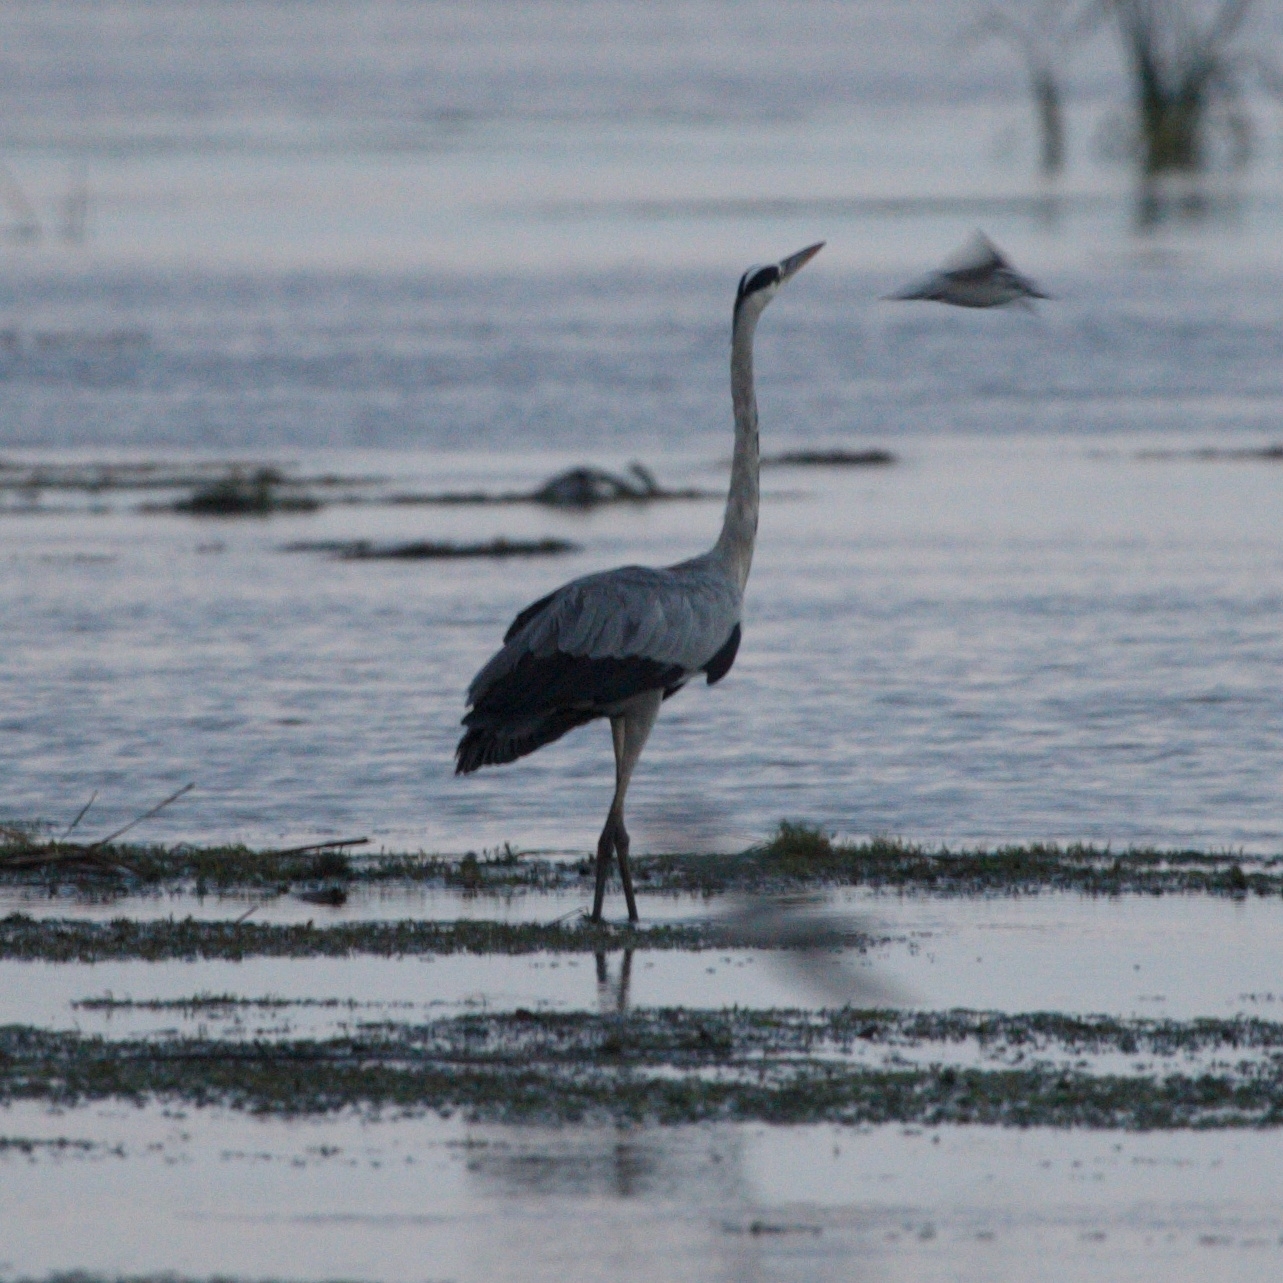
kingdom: Animalia
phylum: Chordata
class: Aves
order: Pelecaniformes
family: Ardeidae
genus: Ardea
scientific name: Ardea cinerea
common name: Grey heron
